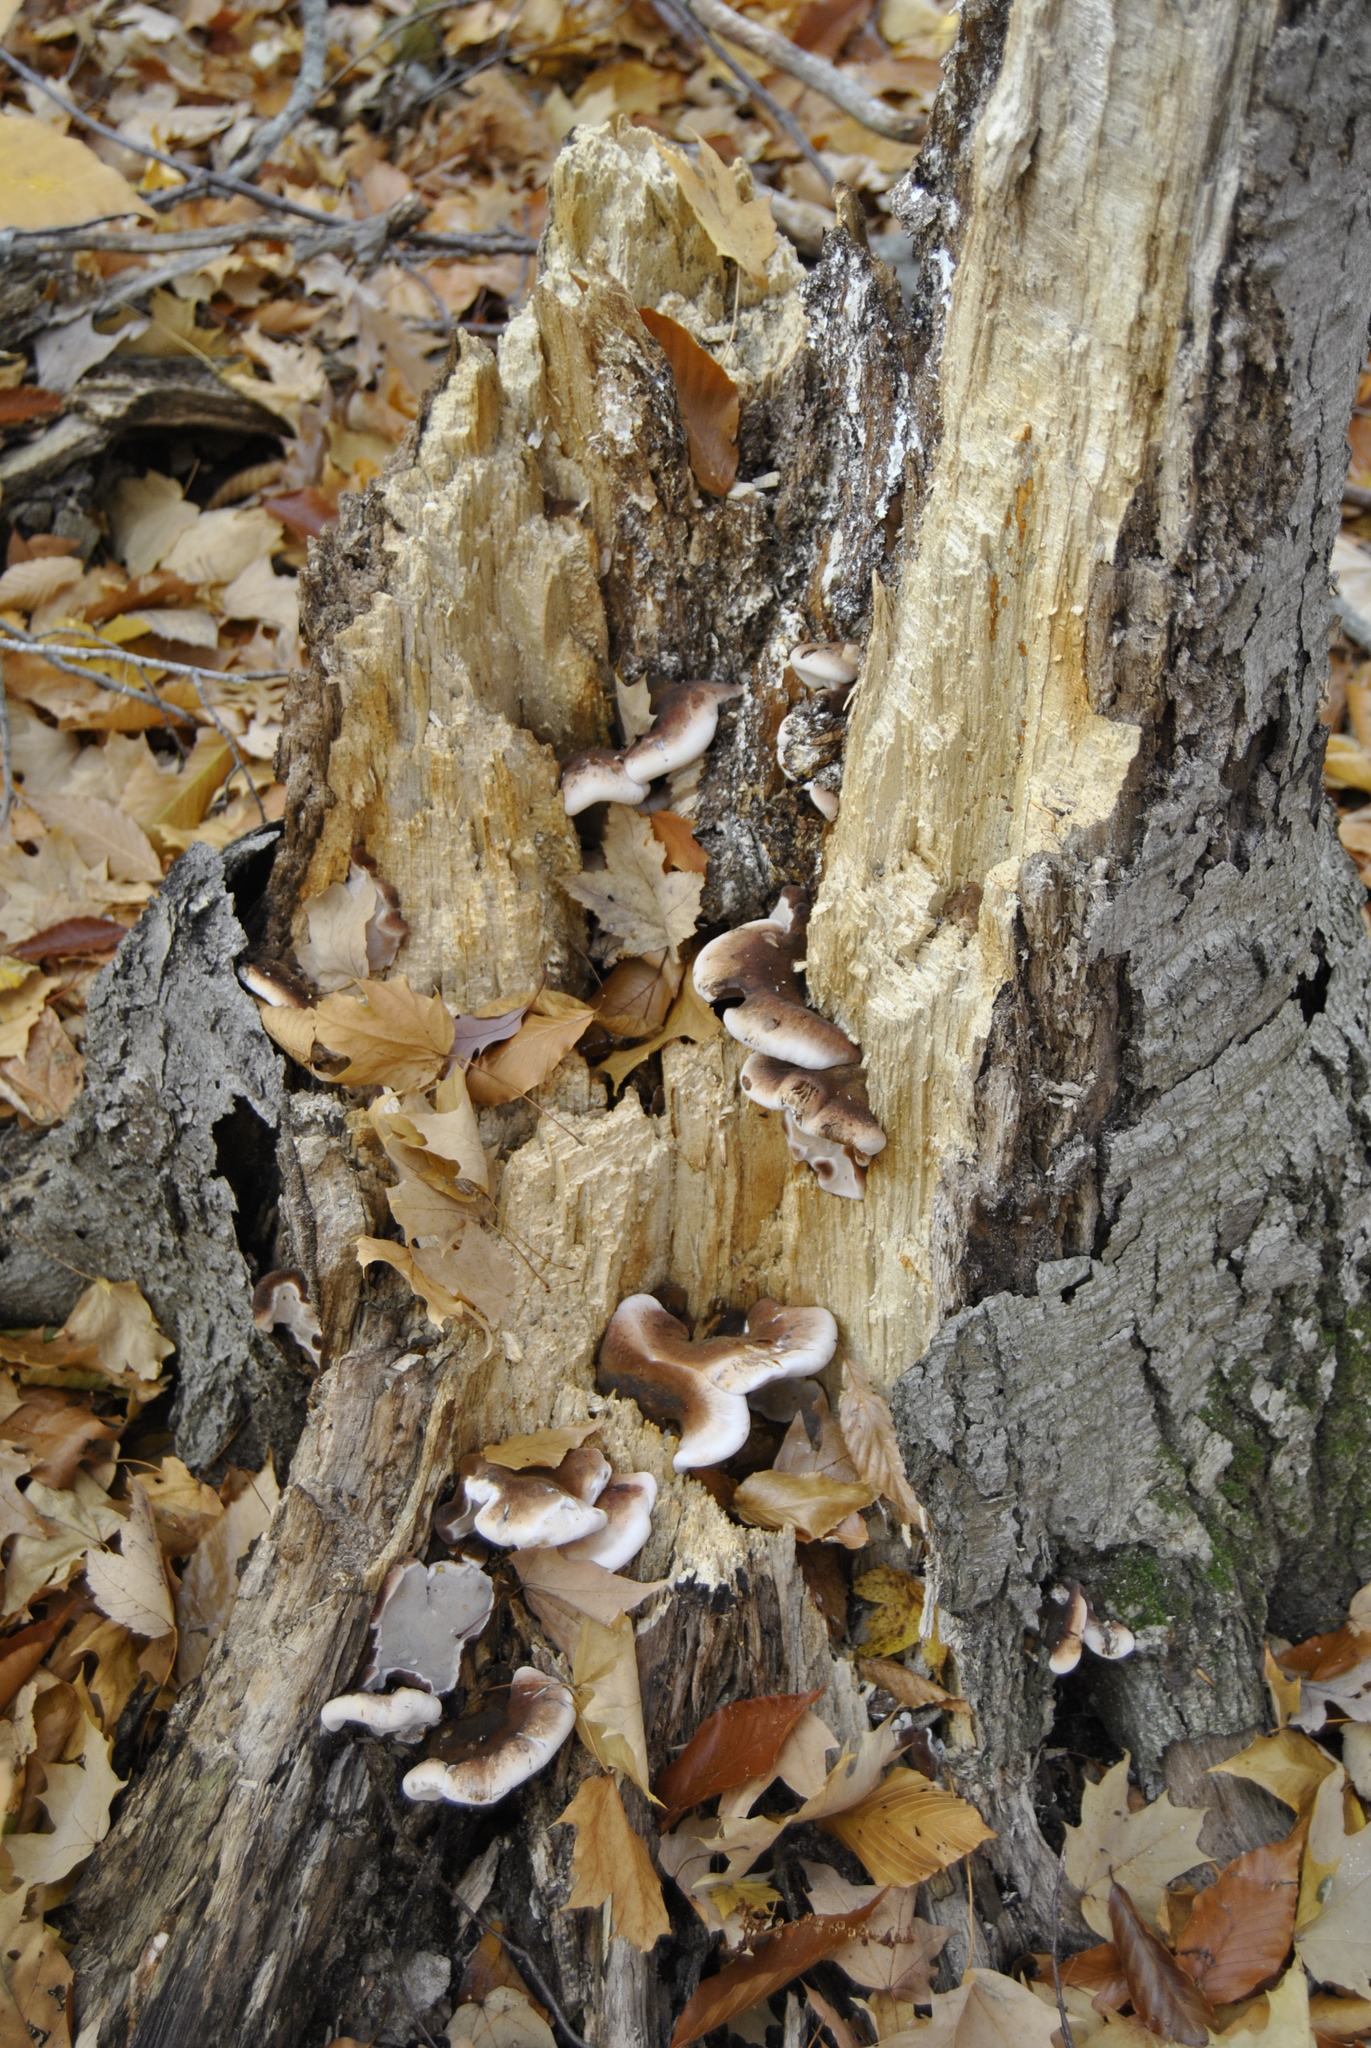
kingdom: Fungi
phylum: Basidiomycota
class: Agaricomycetes
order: Polyporales
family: Ischnodermataceae
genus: Ischnoderma
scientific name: Ischnoderma resinosum
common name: Resinous polypore
